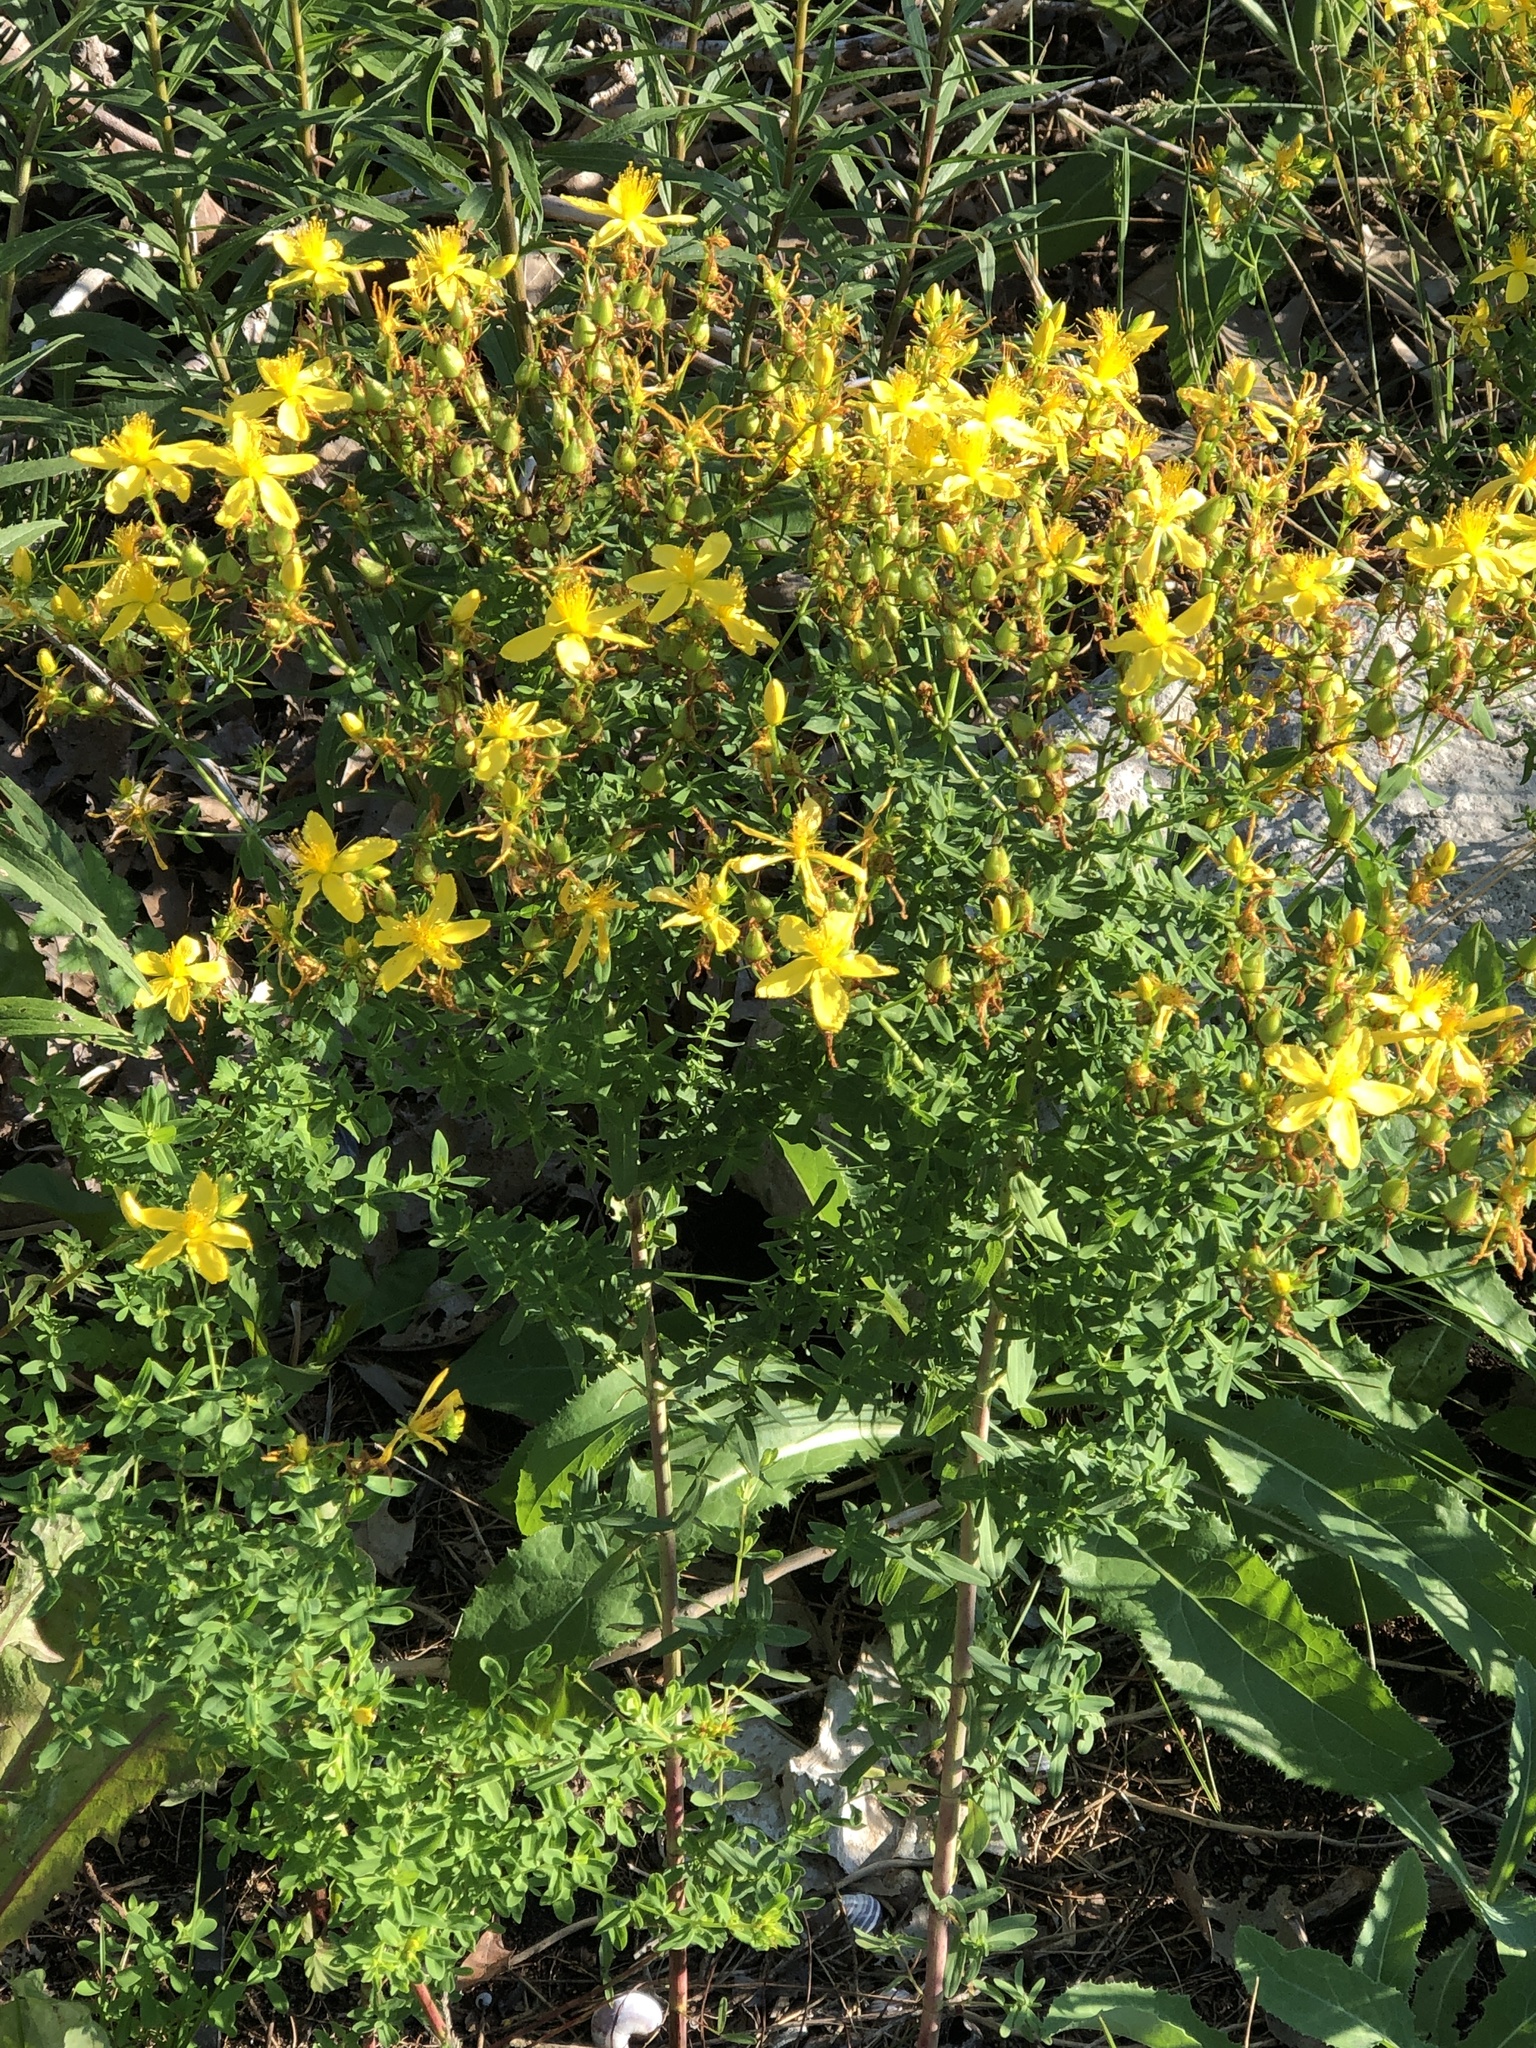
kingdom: Plantae
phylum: Tracheophyta
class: Magnoliopsida
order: Malpighiales
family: Hypericaceae
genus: Hypericum
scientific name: Hypericum perforatum
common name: Common st. johnswort
